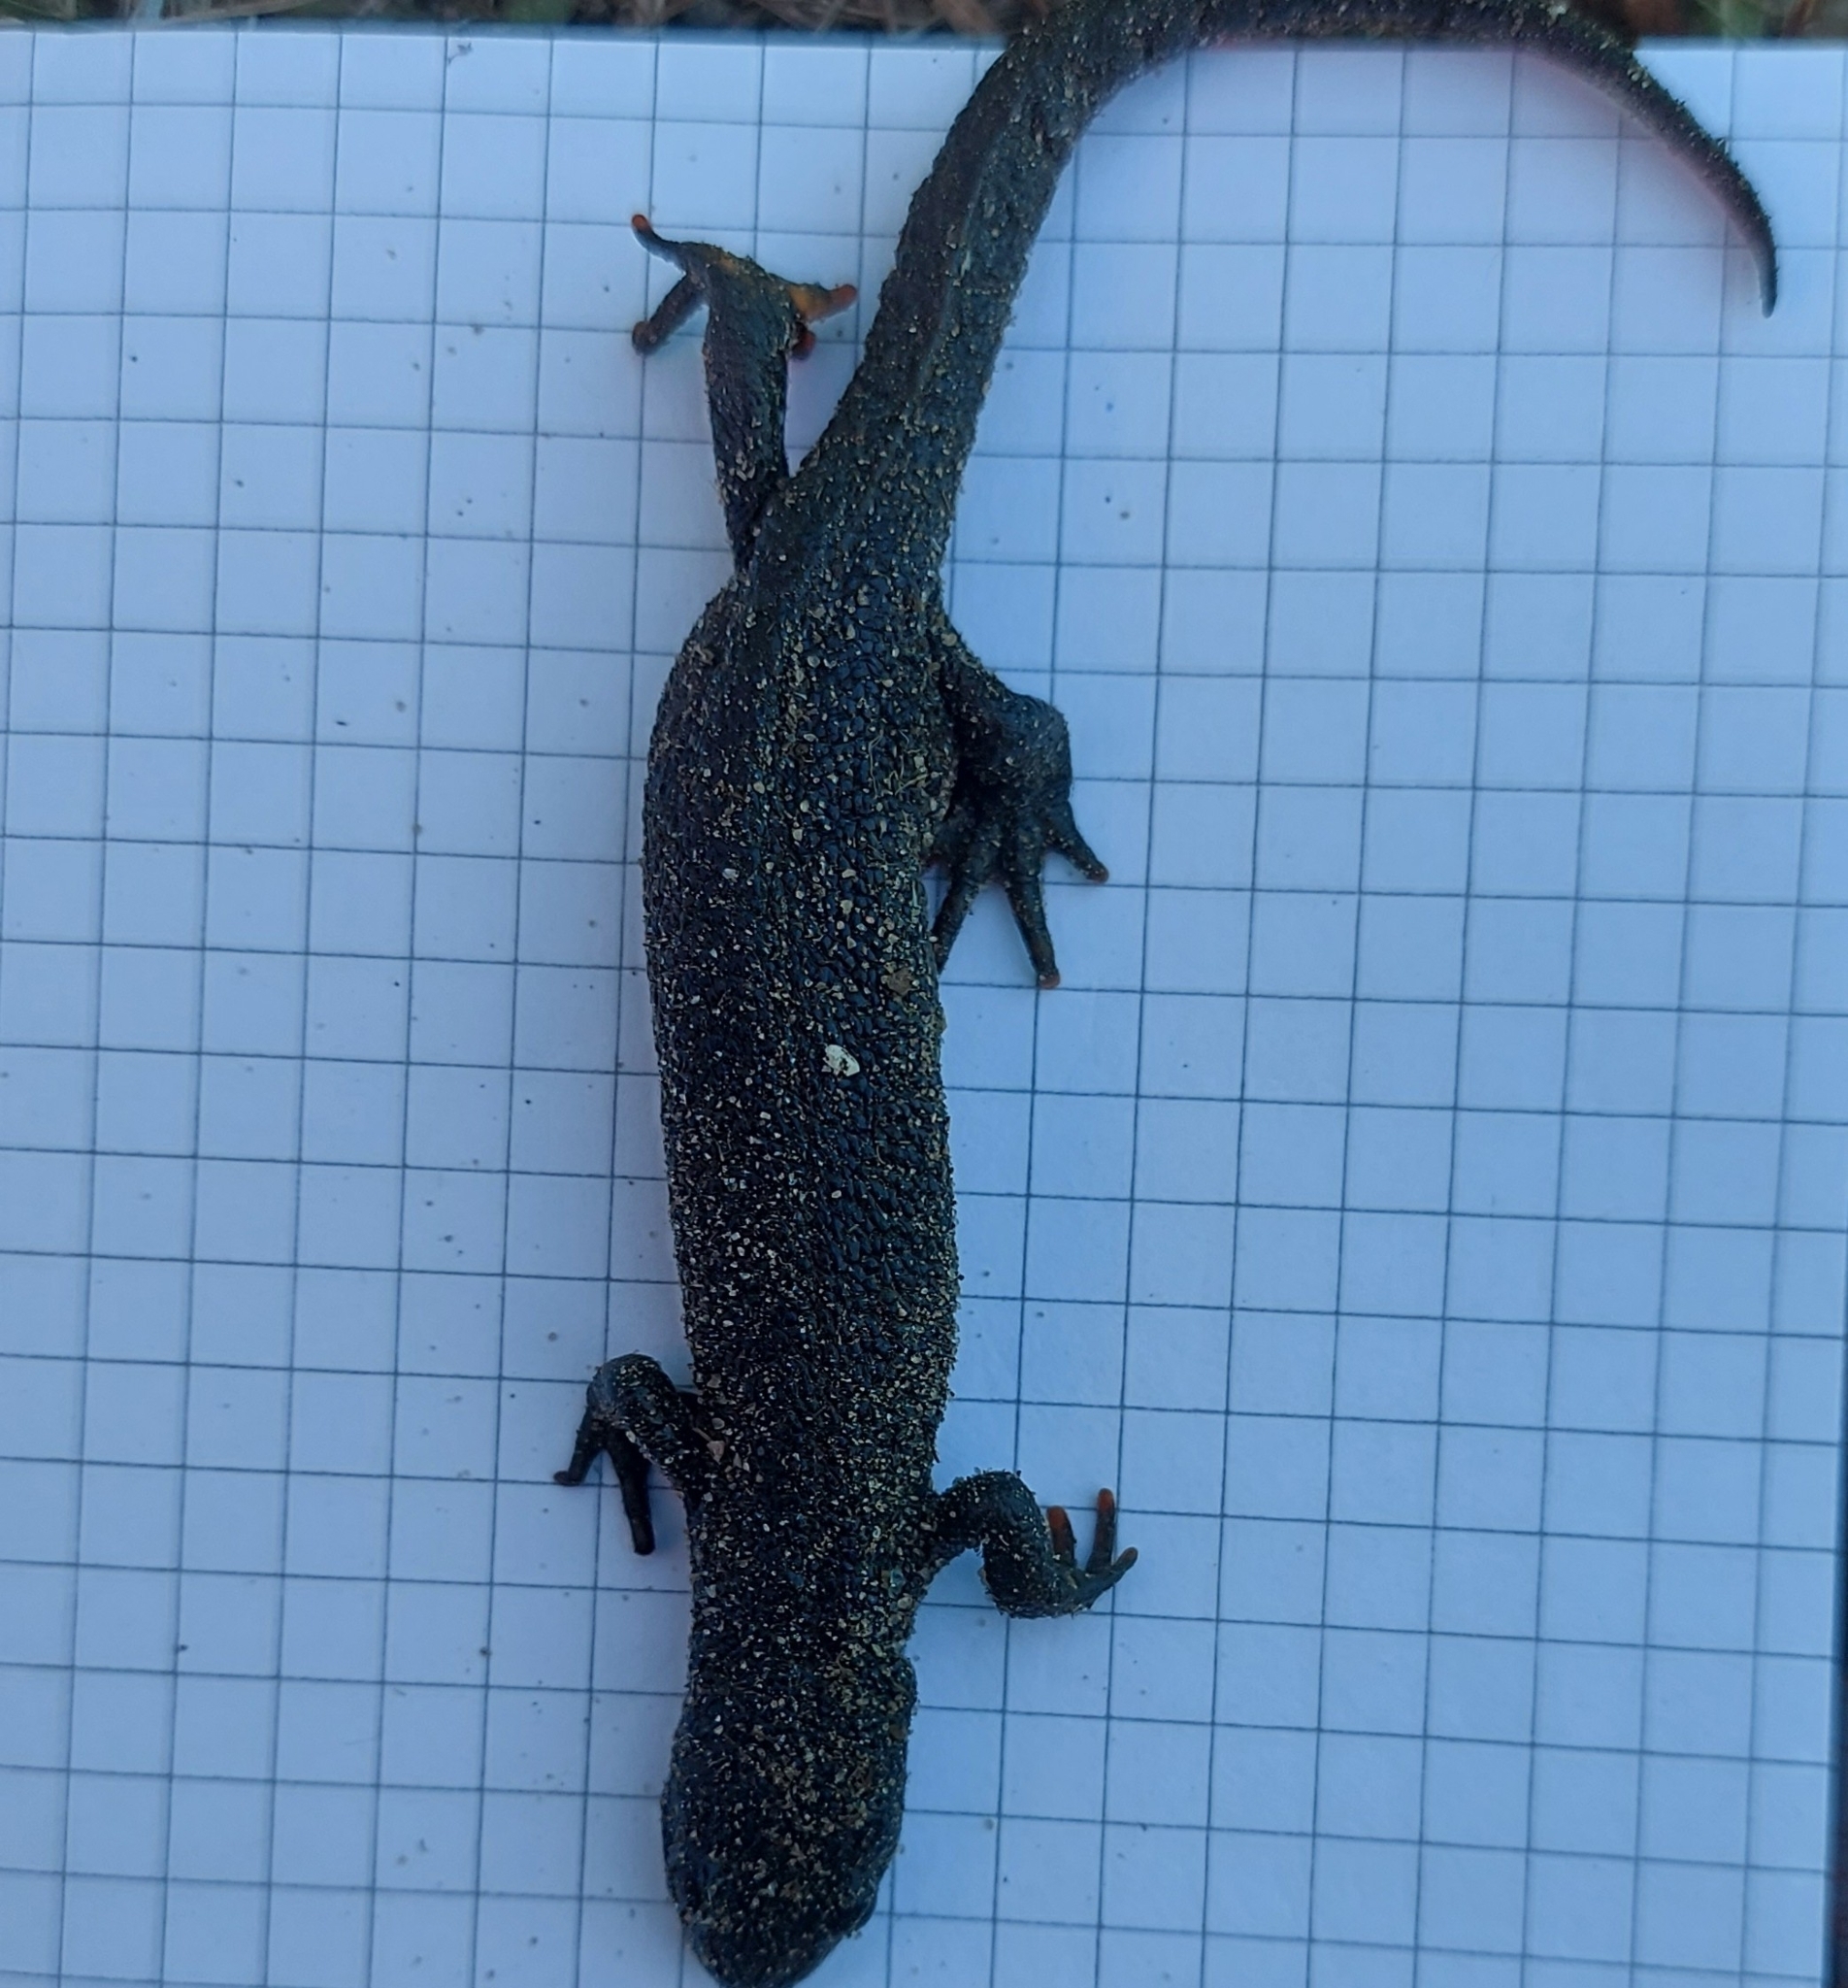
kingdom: Animalia
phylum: Chordata
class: Amphibia
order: Caudata
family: Salamandridae
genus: Triturus
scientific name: Triturus cristatus
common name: Crested newt
